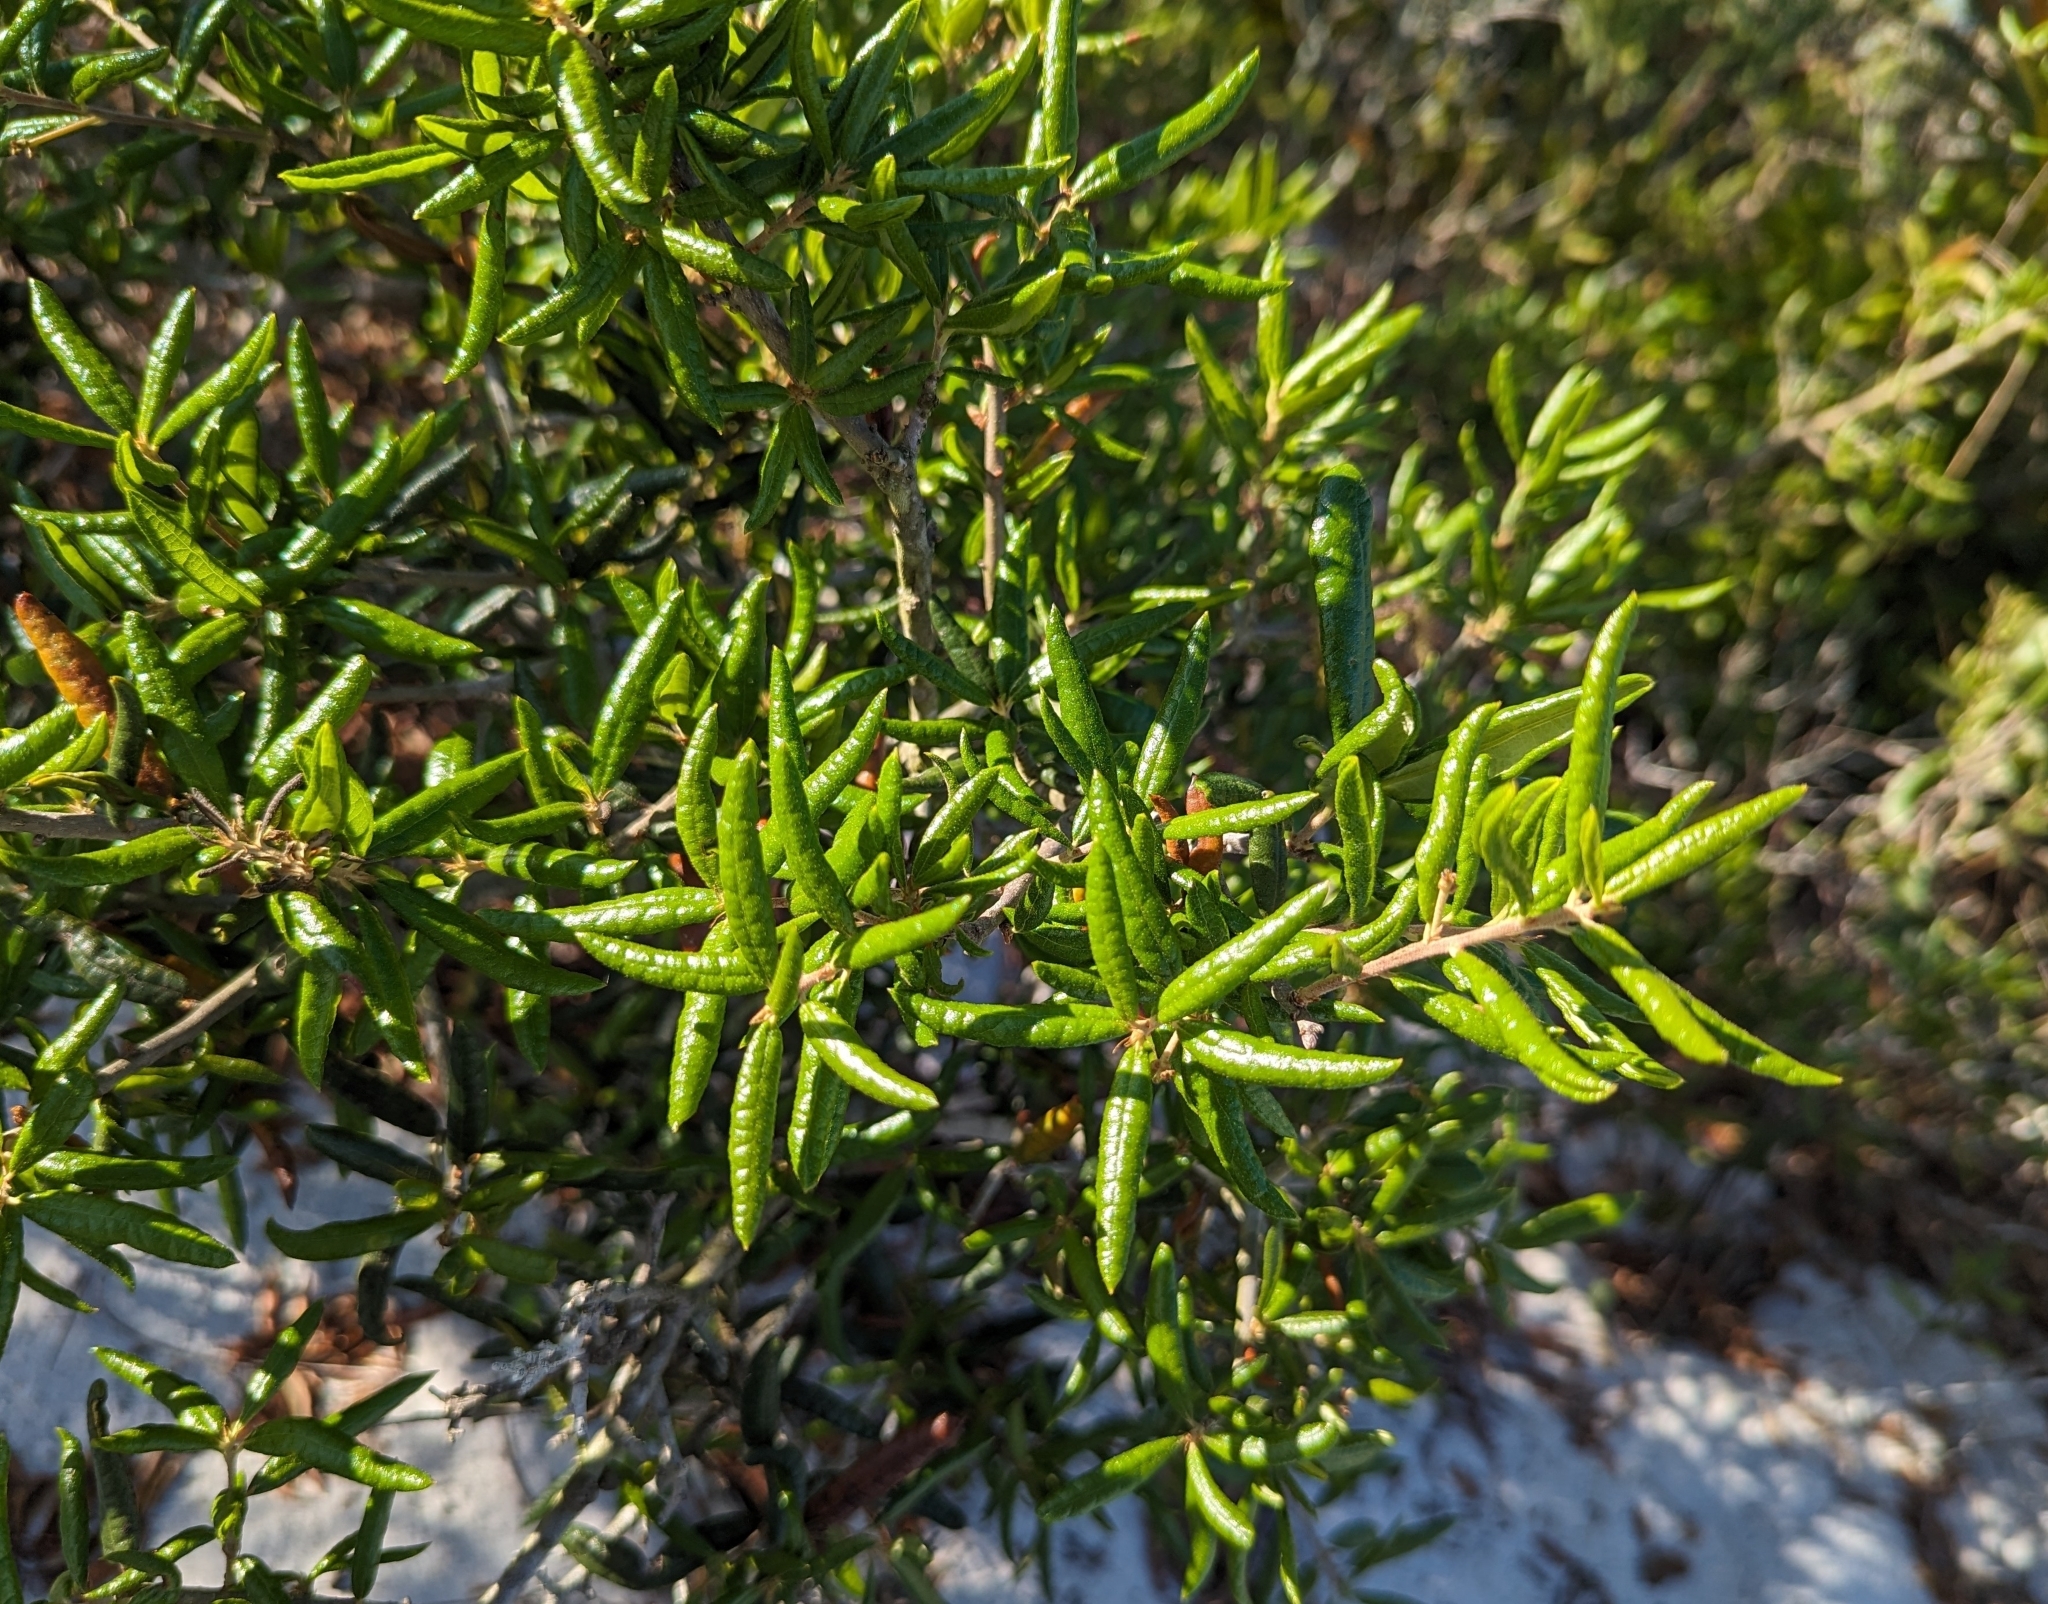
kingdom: Plantae
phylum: Tracheophyta
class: Magnoliopsida
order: Fagales
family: Fagaceae
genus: Quercus
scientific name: Quercus geminata
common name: Sand live oak
